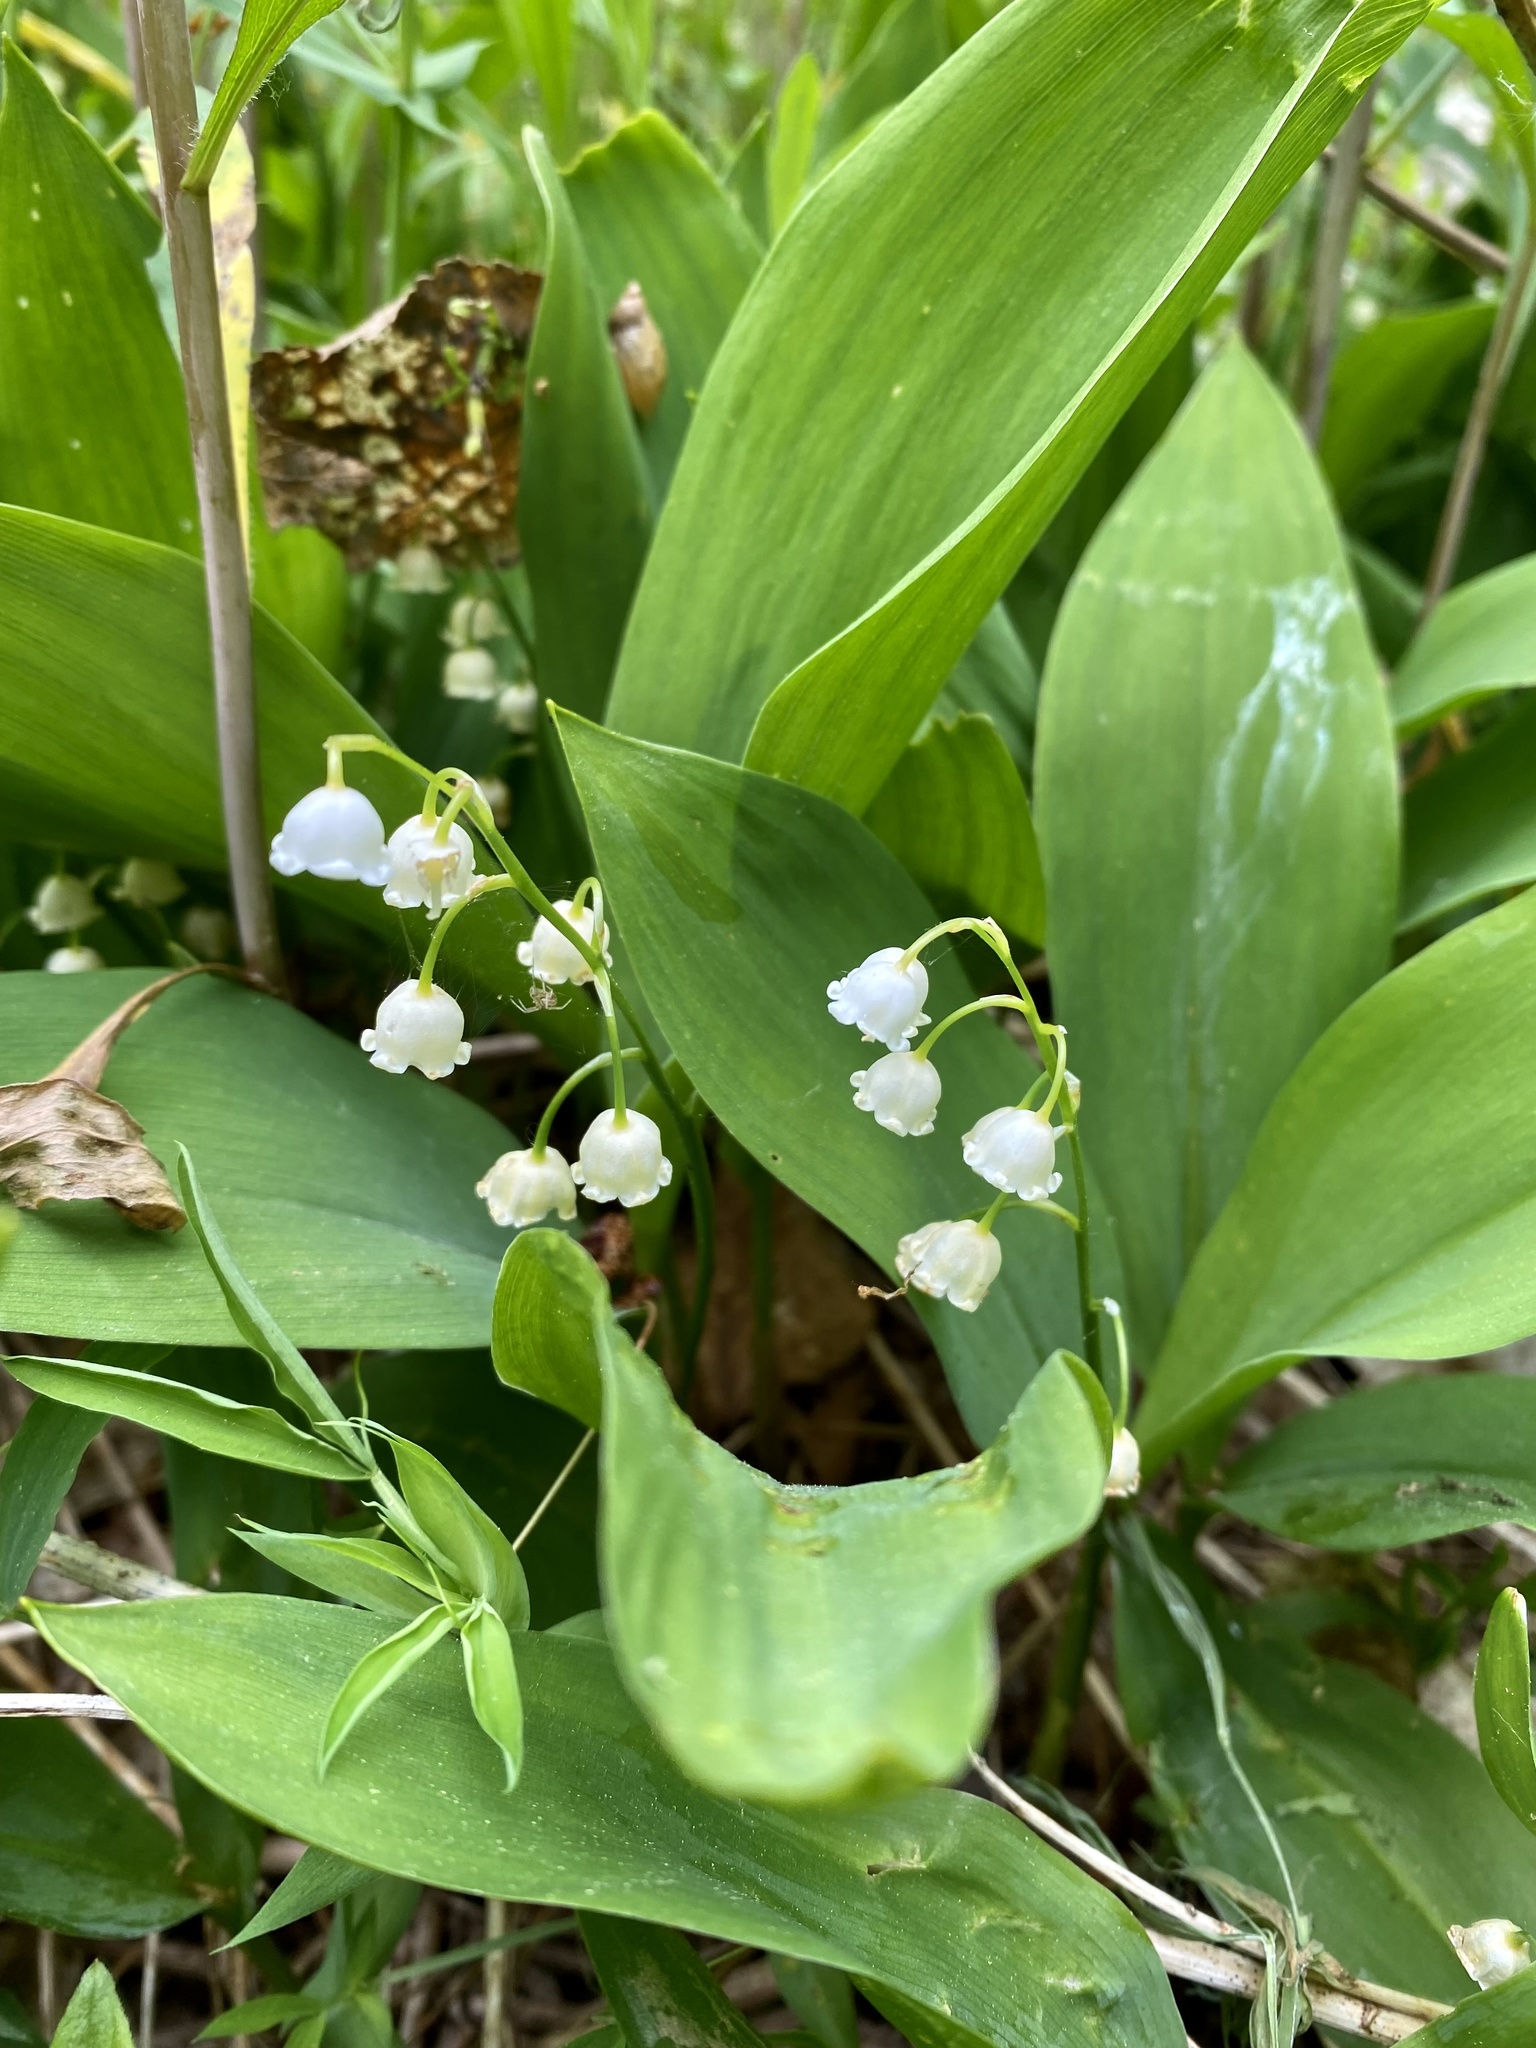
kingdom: Plantae
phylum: Tracheophyta
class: Liliopsida
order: Asparagales
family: Asparagaceae
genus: Convallaria
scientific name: Convallaria majalis
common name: Lily-of-the-valley
